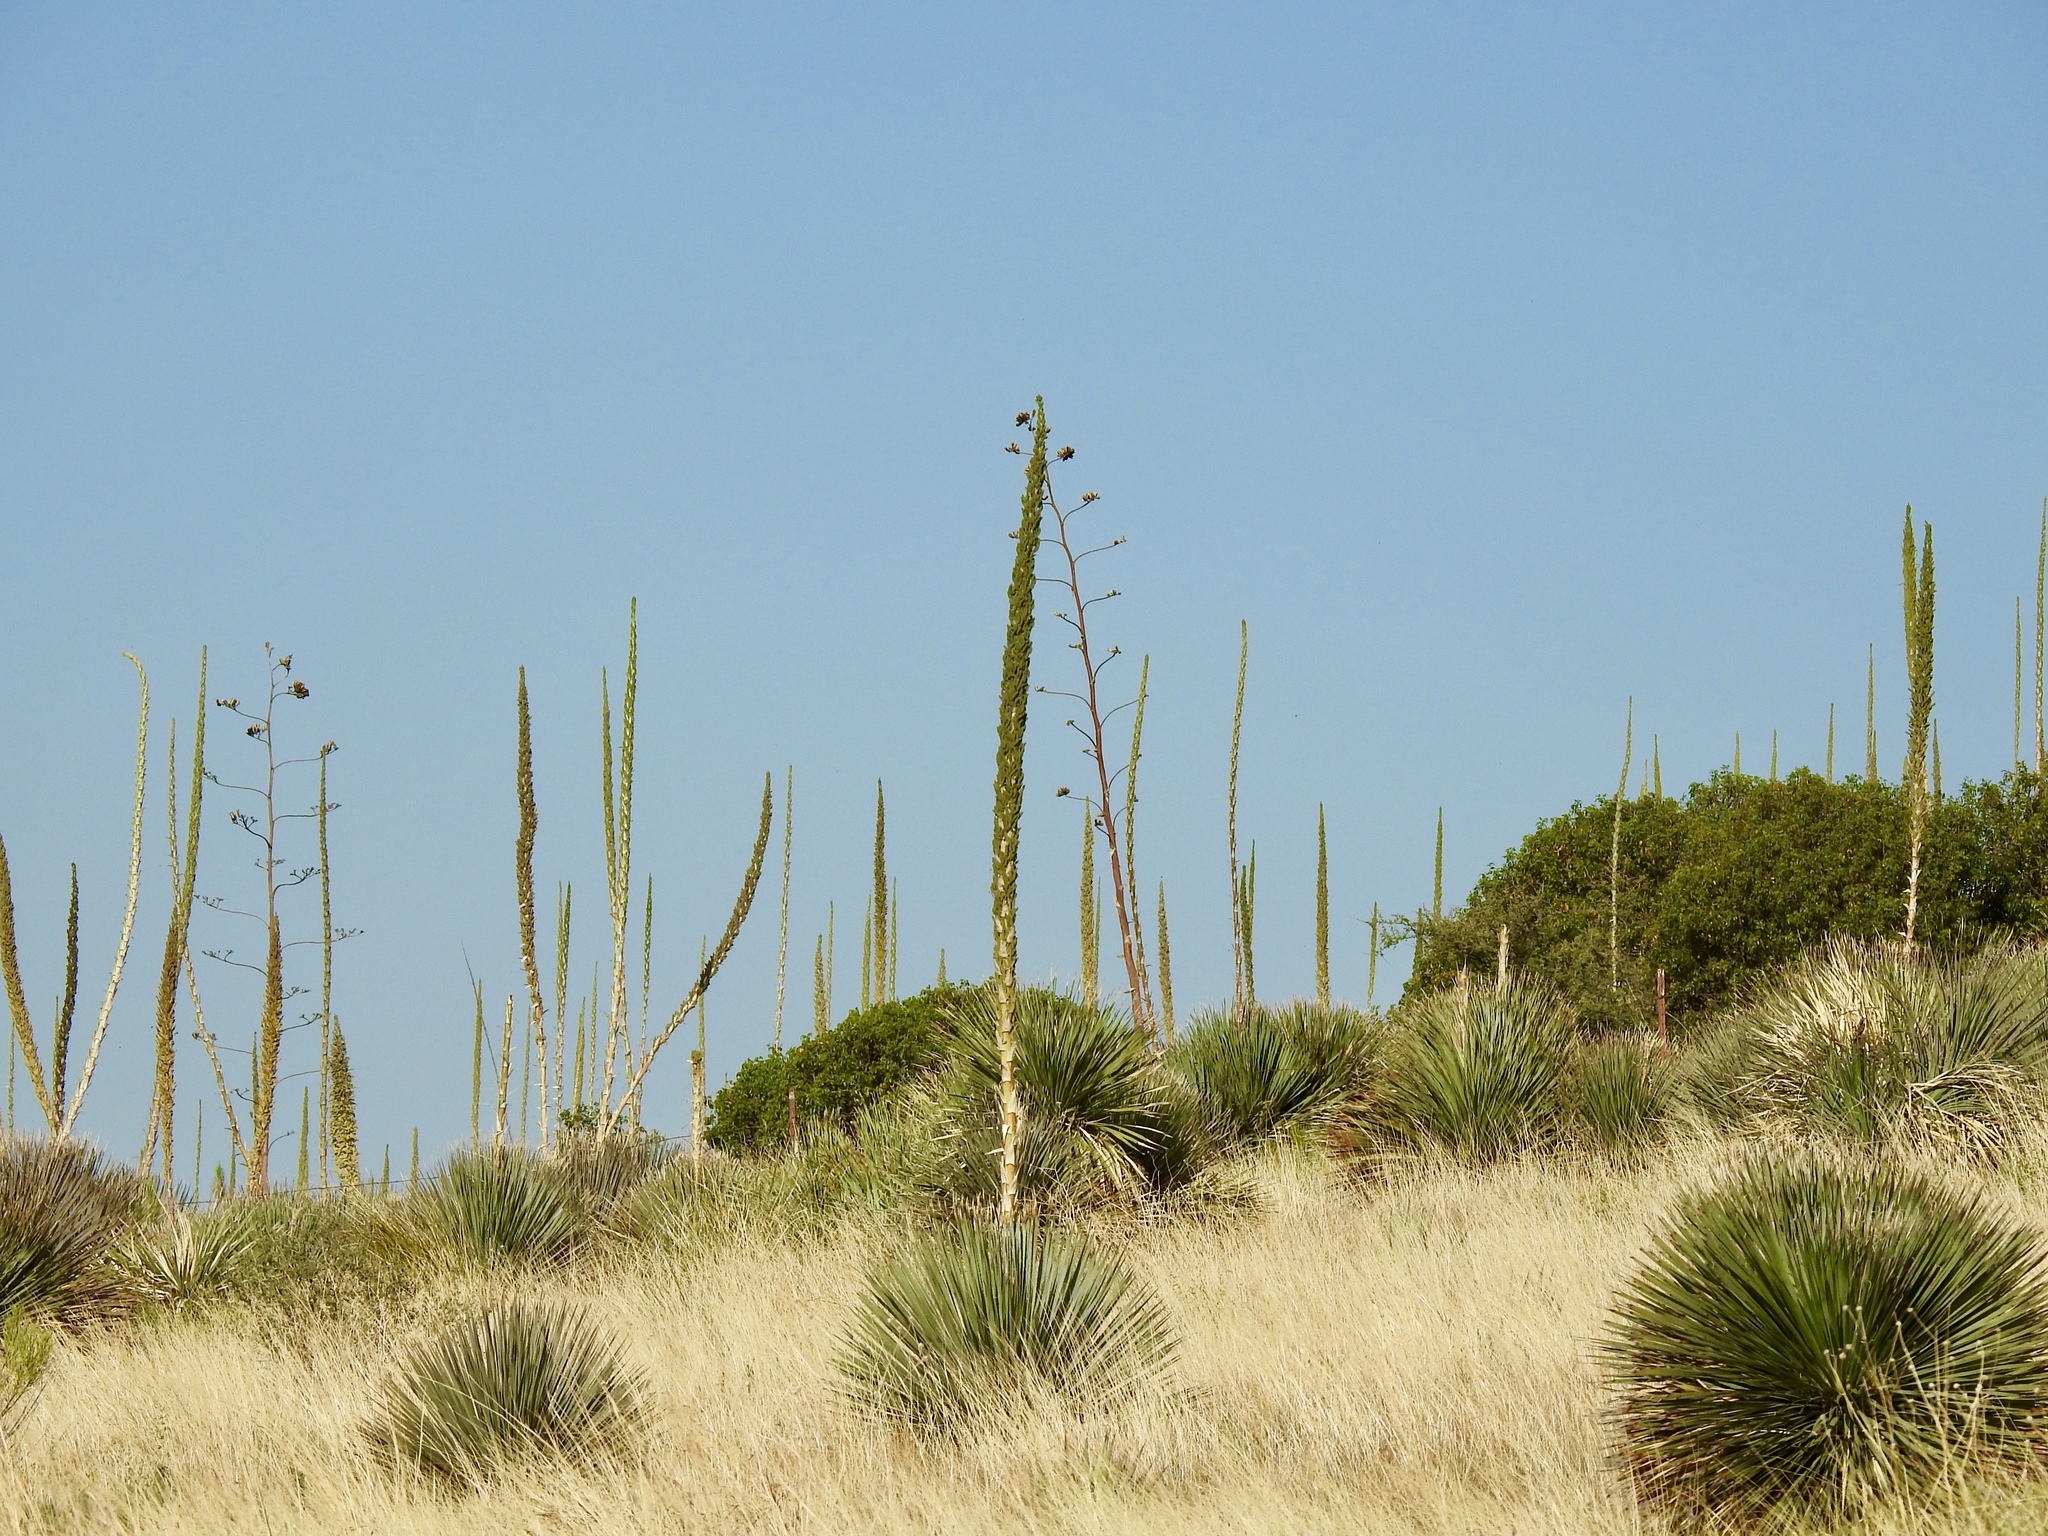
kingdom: Plantae
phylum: Tracheophyta
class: Liliopsida
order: Asparagales
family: Asparagaceae
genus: Dasylirion
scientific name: Dasylirion wheeleri
